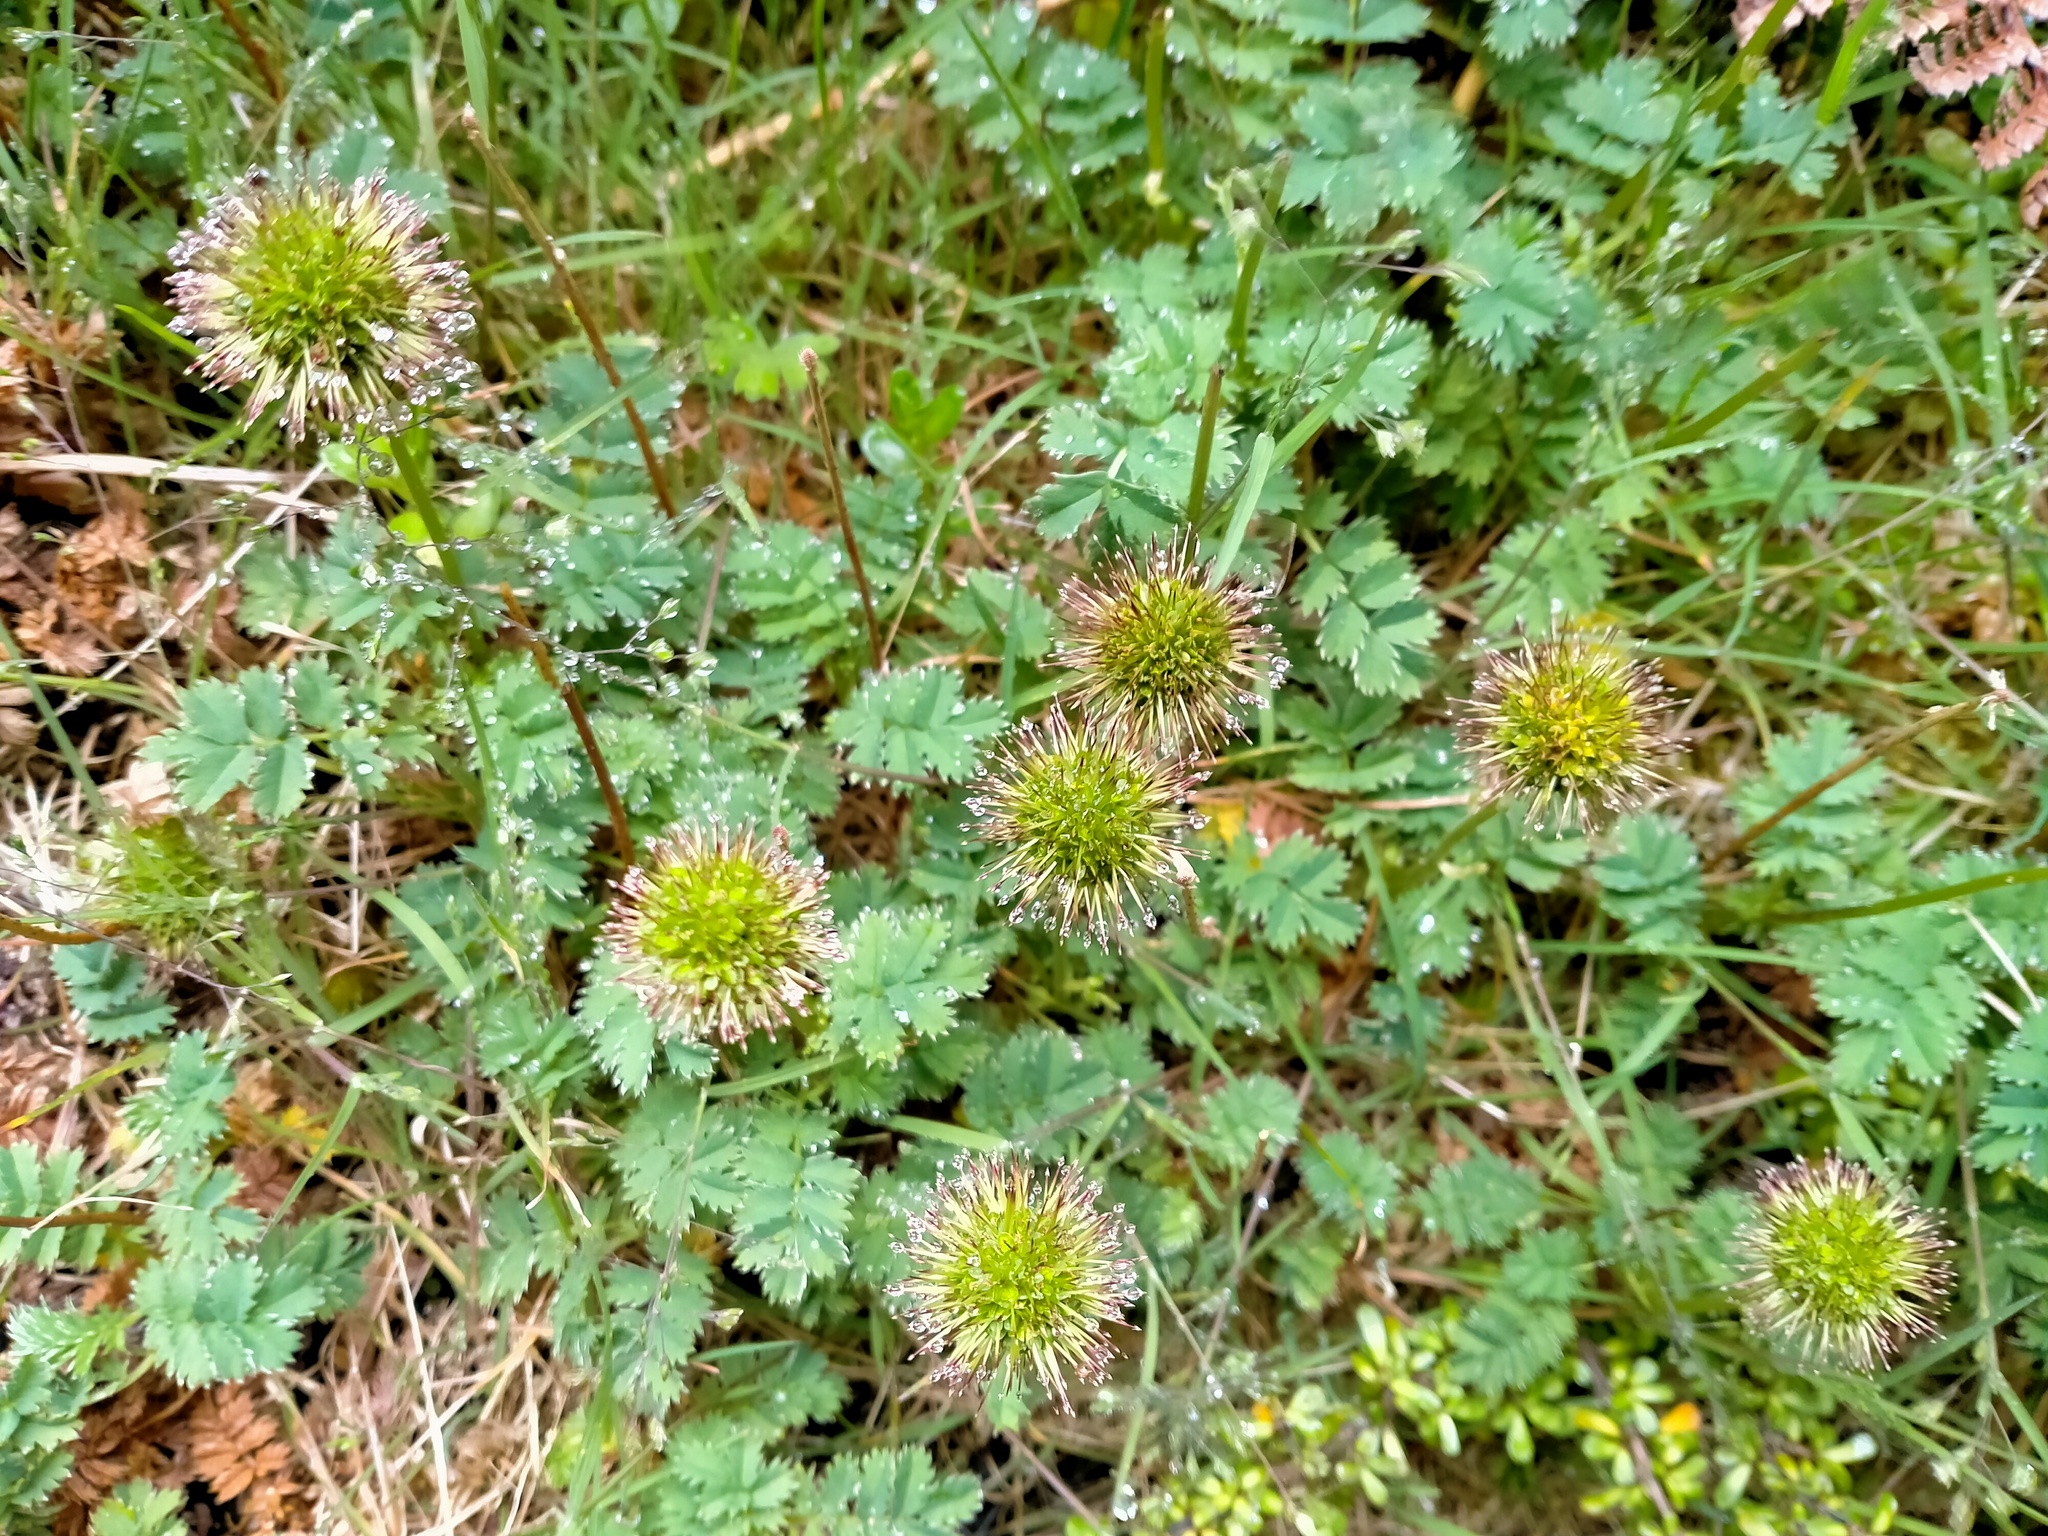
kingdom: Plantae
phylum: Tracheophyta
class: Magnoliopsida
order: Rosales
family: Rosaceae
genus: Acaena
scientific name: Acaena minor
